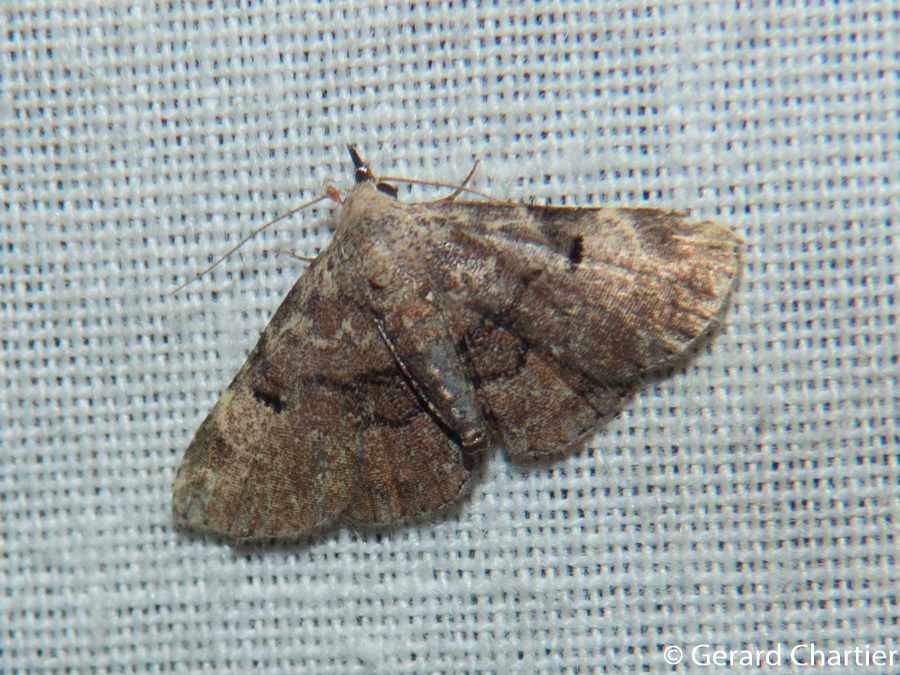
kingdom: Animalia
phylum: Arthropoda
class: Insecta
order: Lepidoptera
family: Erebidae
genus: Maguda
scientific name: Maguda suffusa
